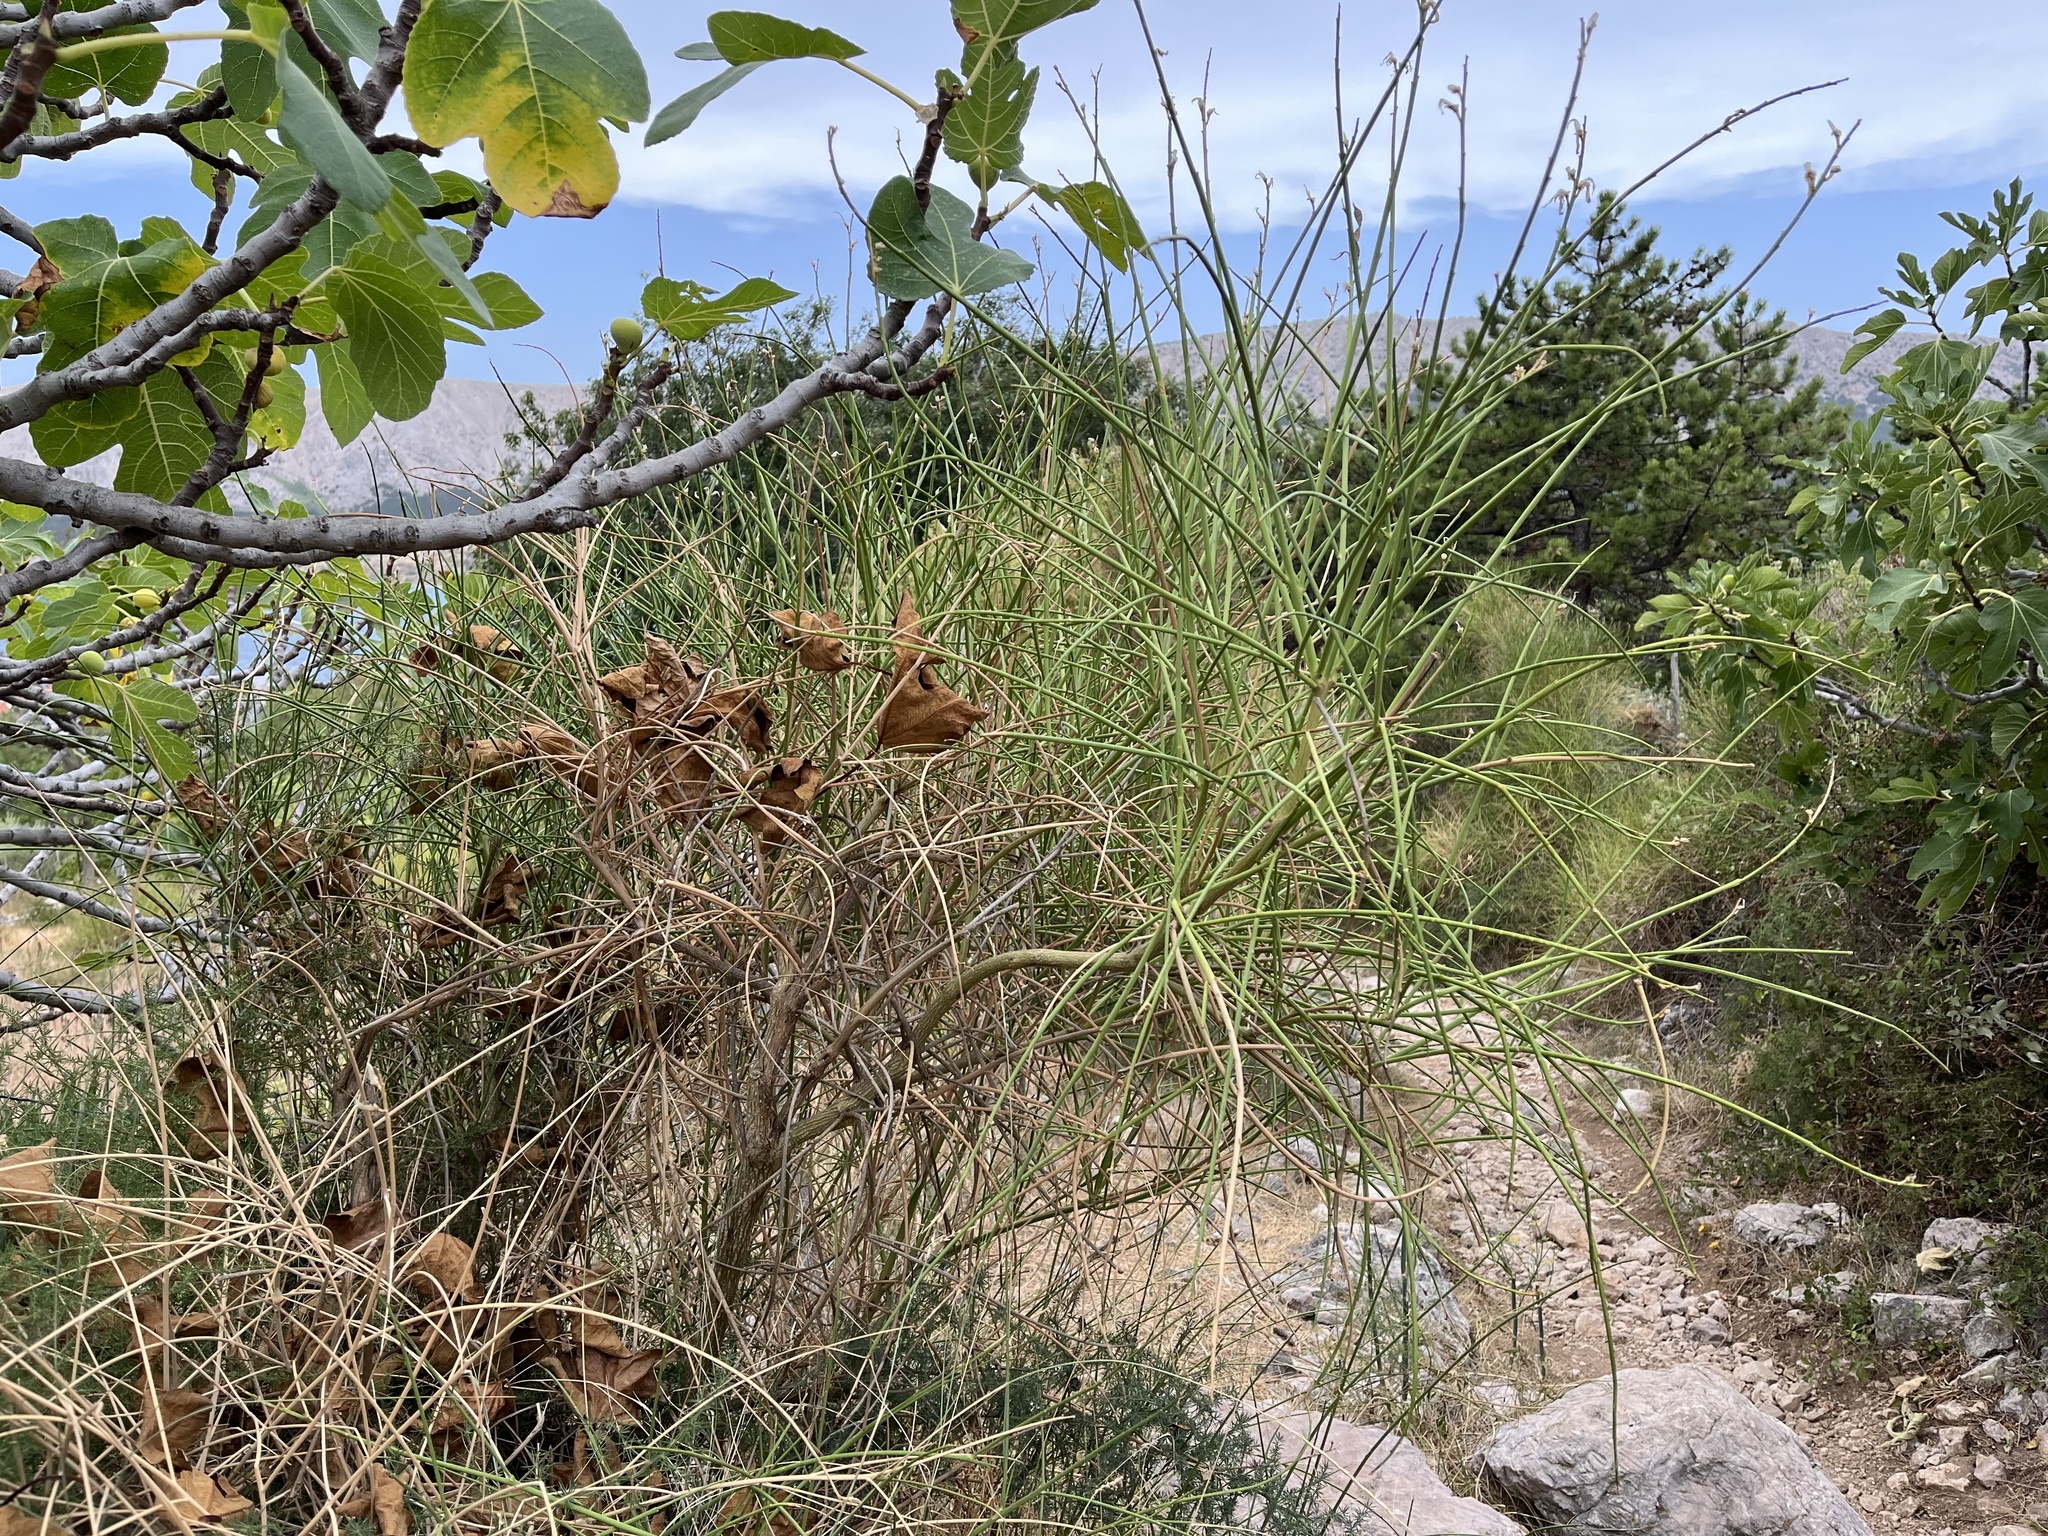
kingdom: Plantae
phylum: Tracheophyta
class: Magnoliopsida
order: Fabales
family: Fabaceae
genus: Spartium
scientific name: Spartium junceum
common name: Spanish broom
